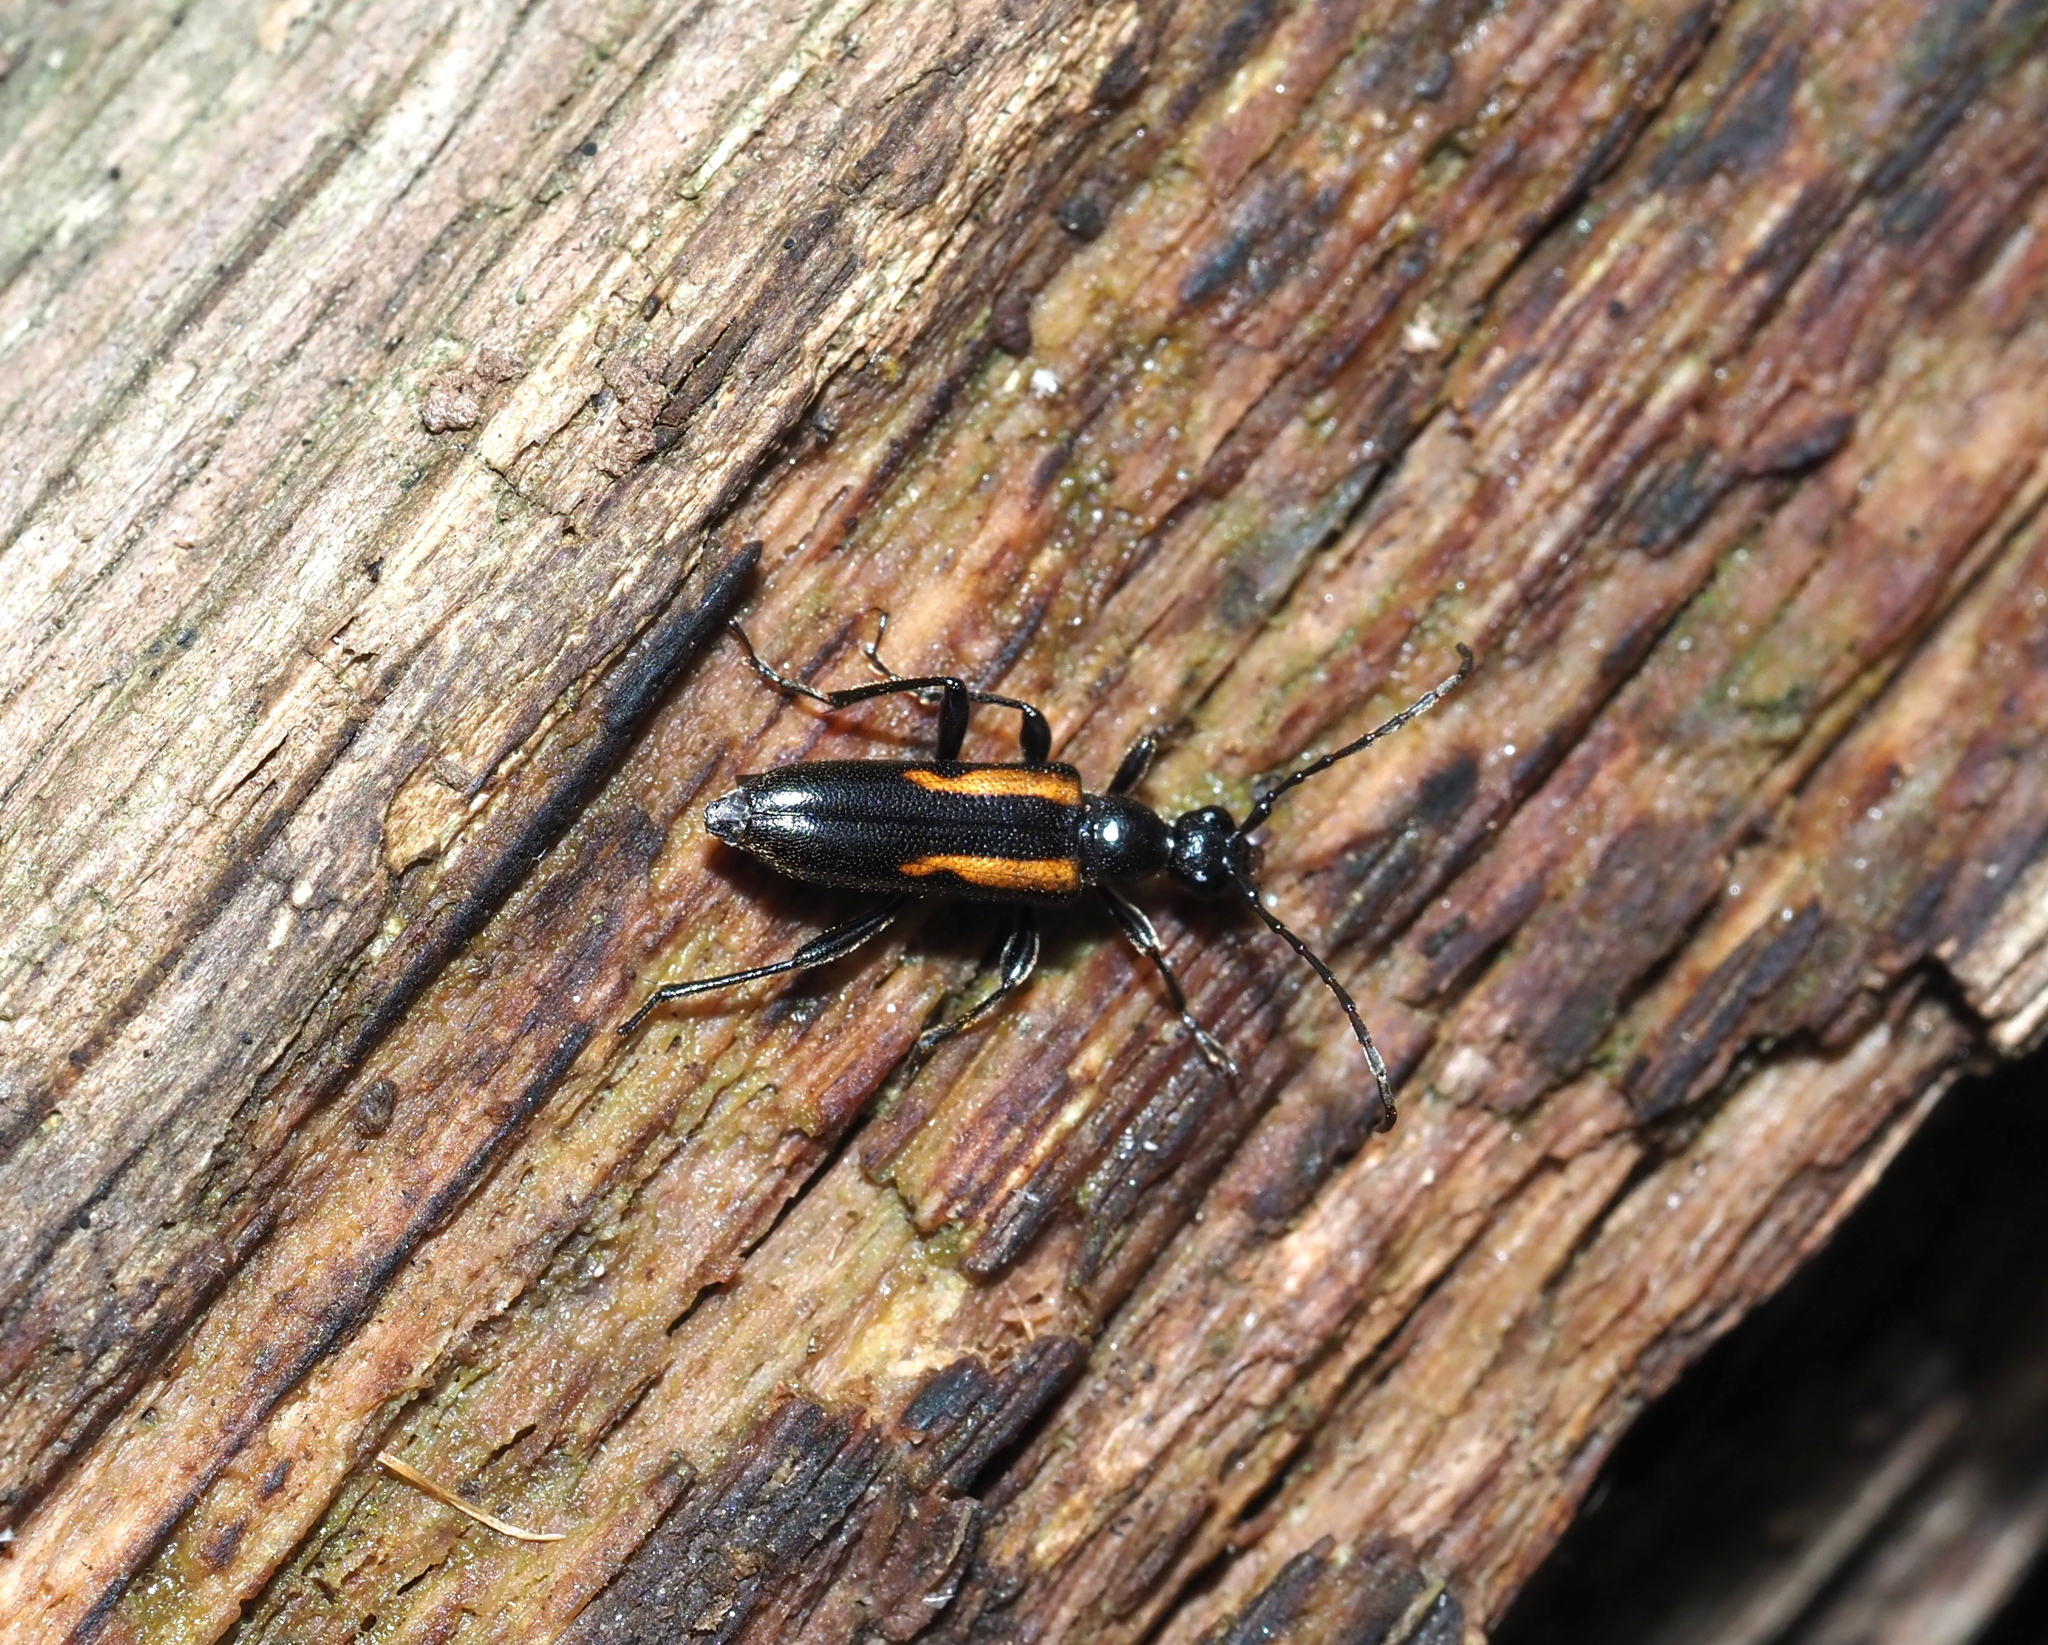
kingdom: Animalia
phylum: Arthropoda
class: Insecta
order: Coleoptera
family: Cerambycidae
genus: Strangalepta
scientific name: Strangalepta abbreviata
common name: Strangalepta flower longhorn beetle
